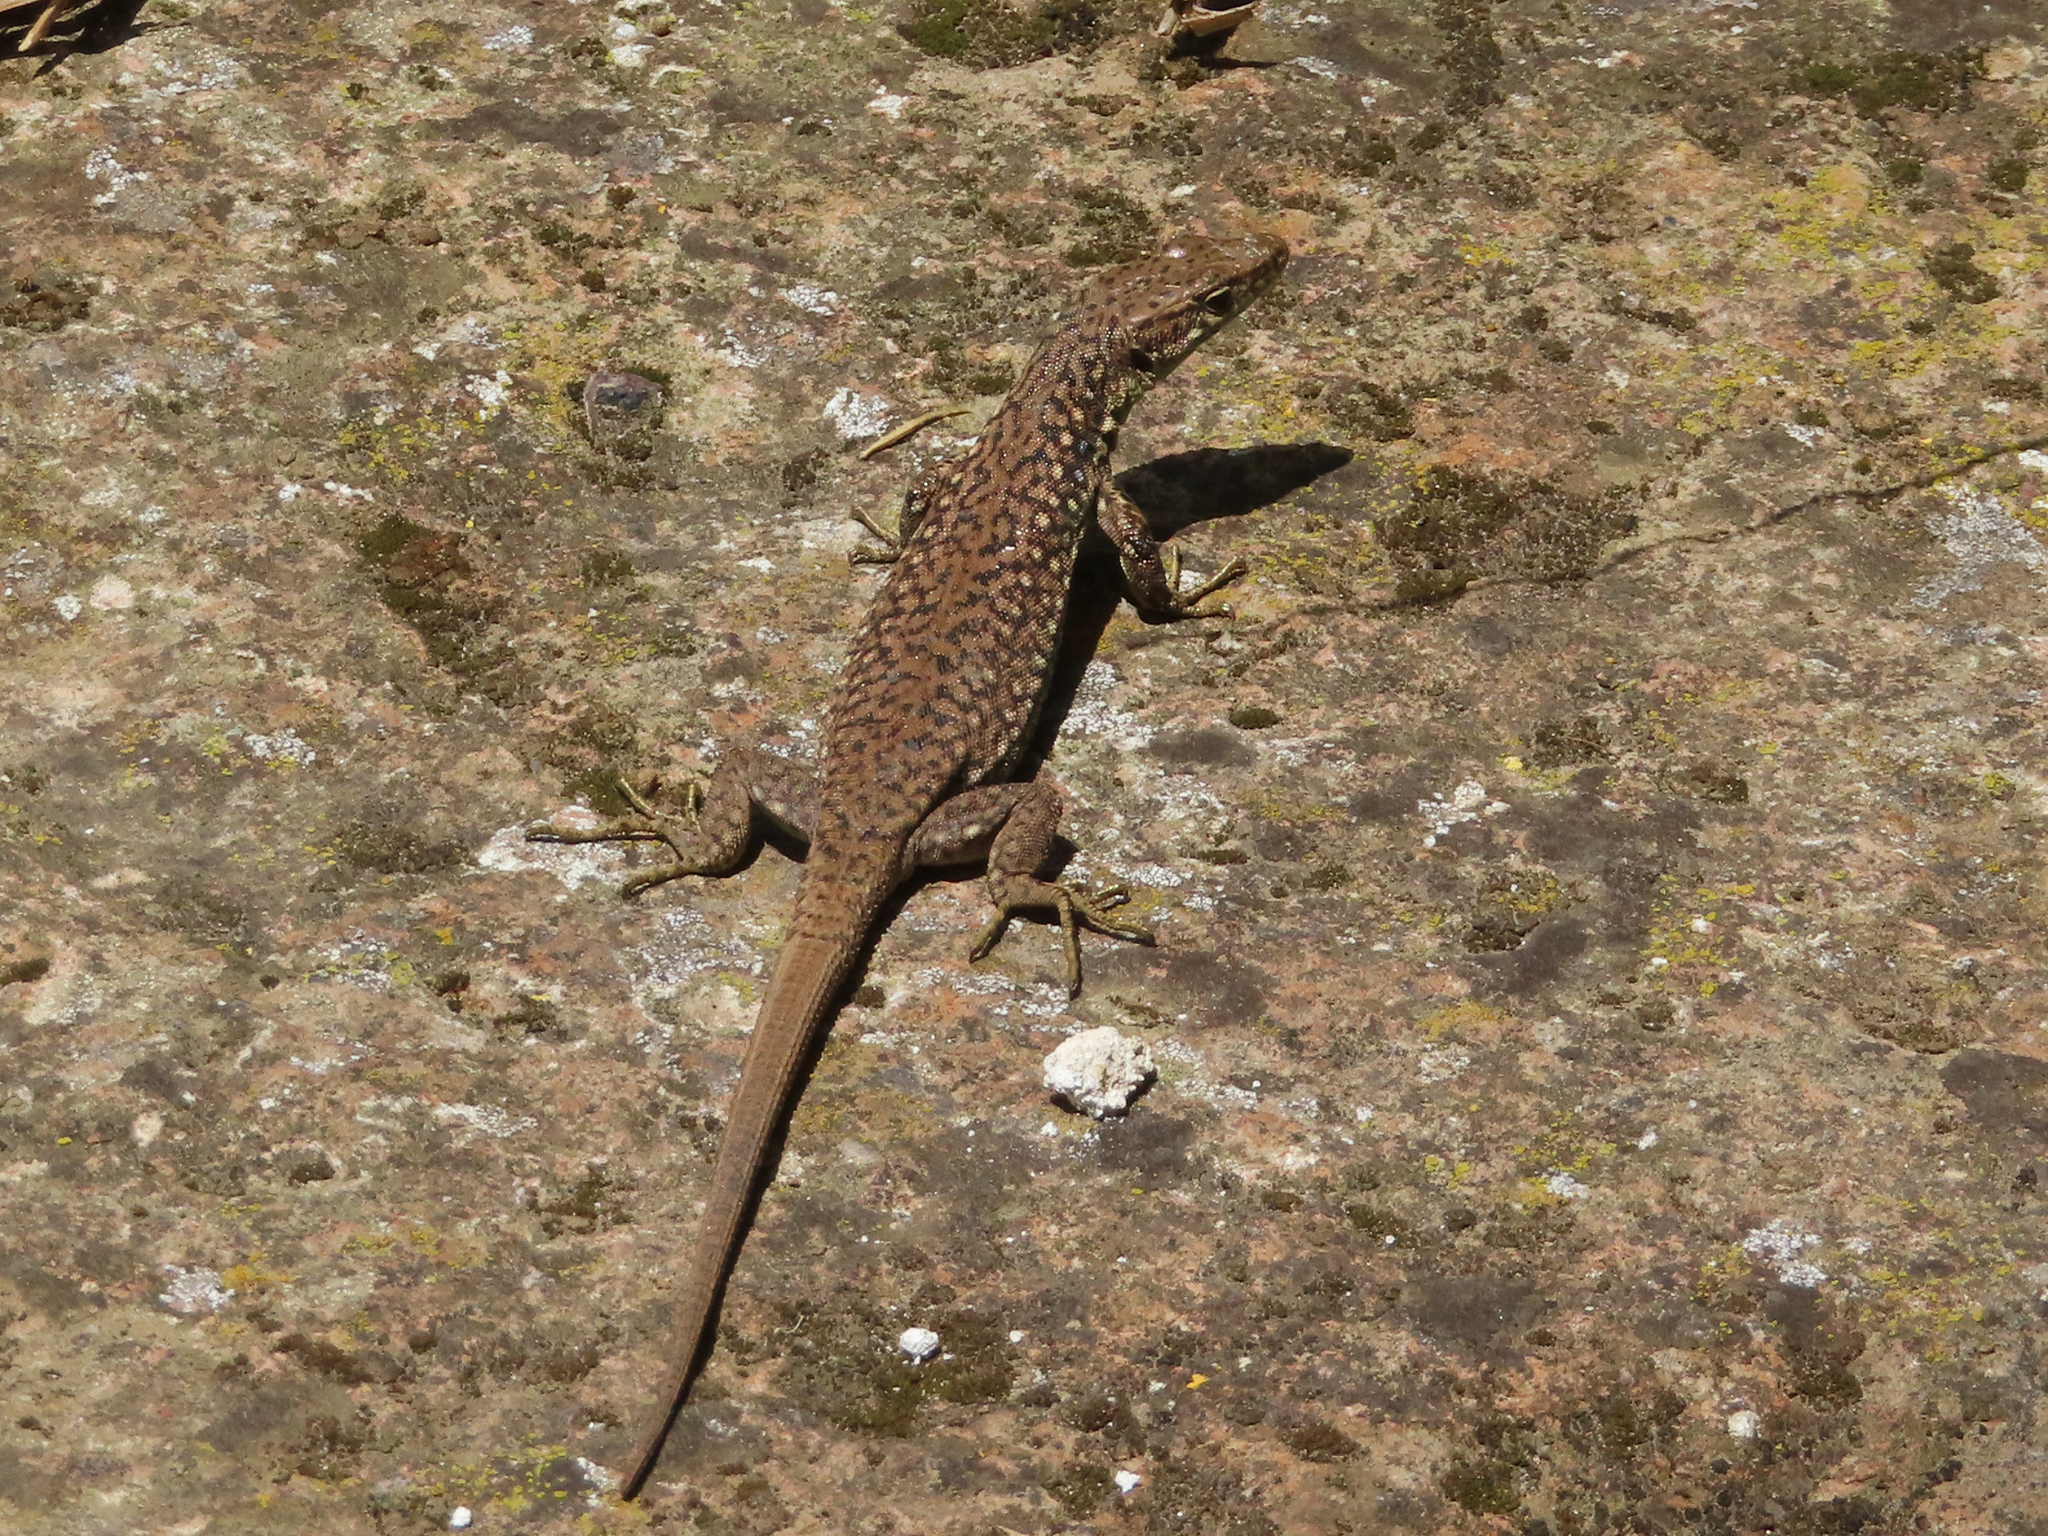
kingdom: Animalia
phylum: Chordata
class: Squamata
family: Lacertidae
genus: Darevskia
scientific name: Darevskia
